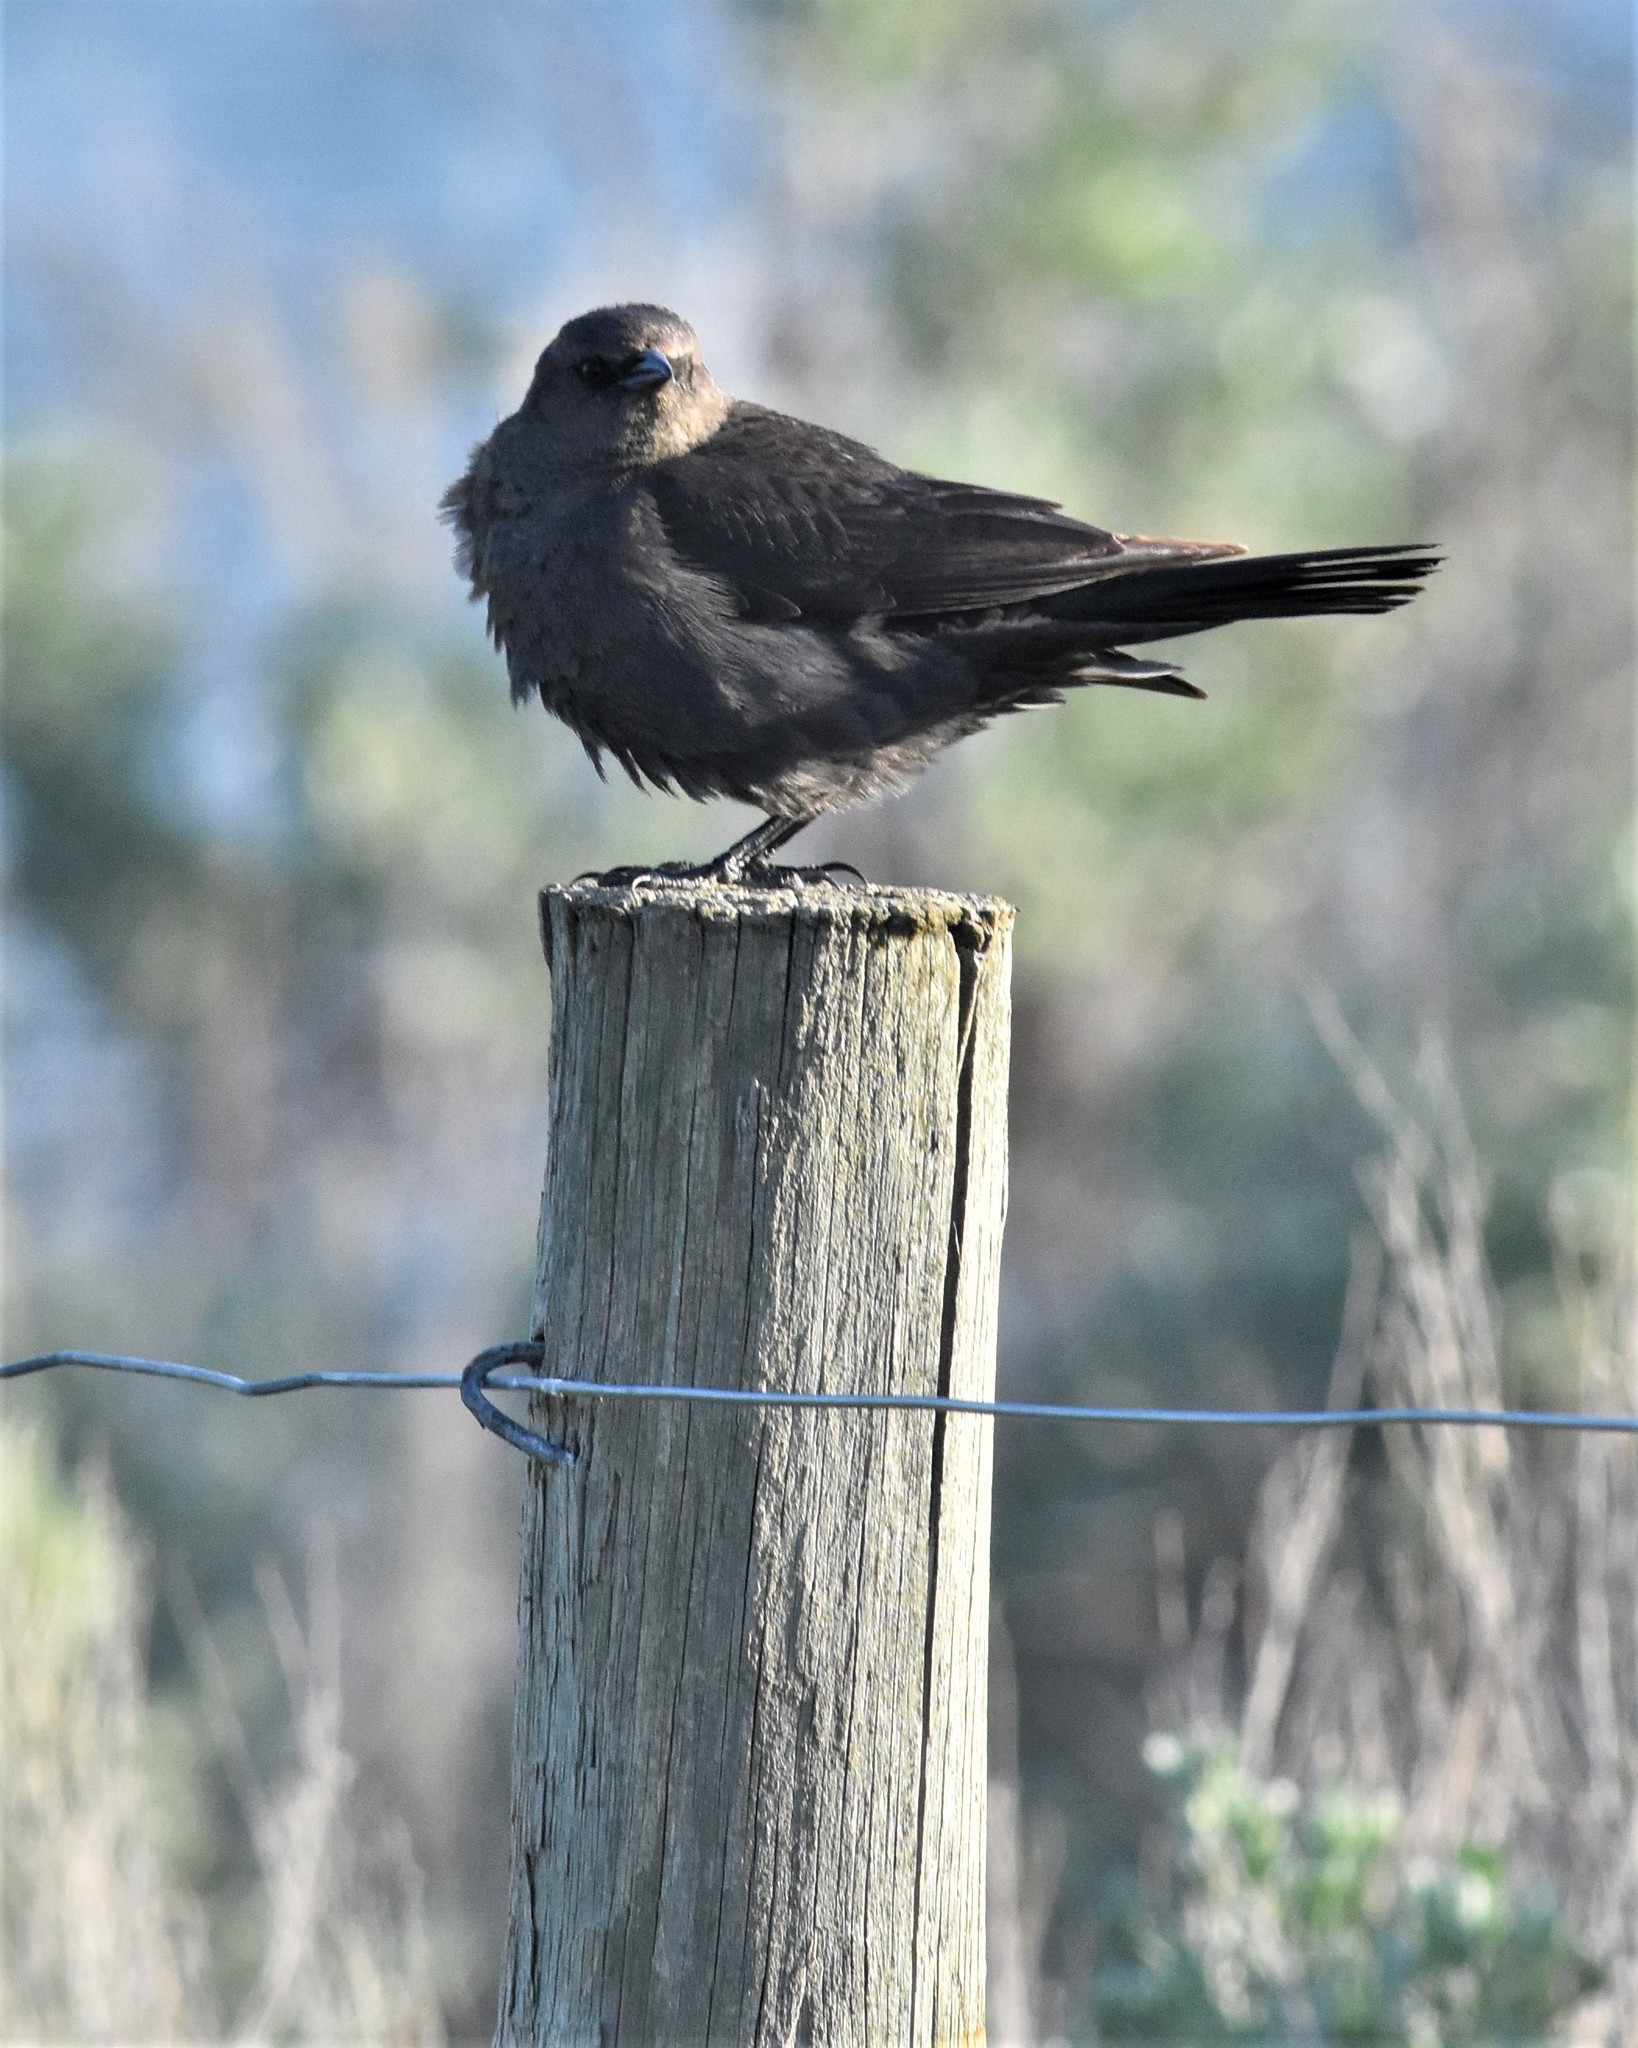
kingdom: Animalia
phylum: Chordata
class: Aves
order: Passeriformes
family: Icteridae
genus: Euphagus
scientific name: Euphagus cyanocephalus
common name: Brewer's blackbird
